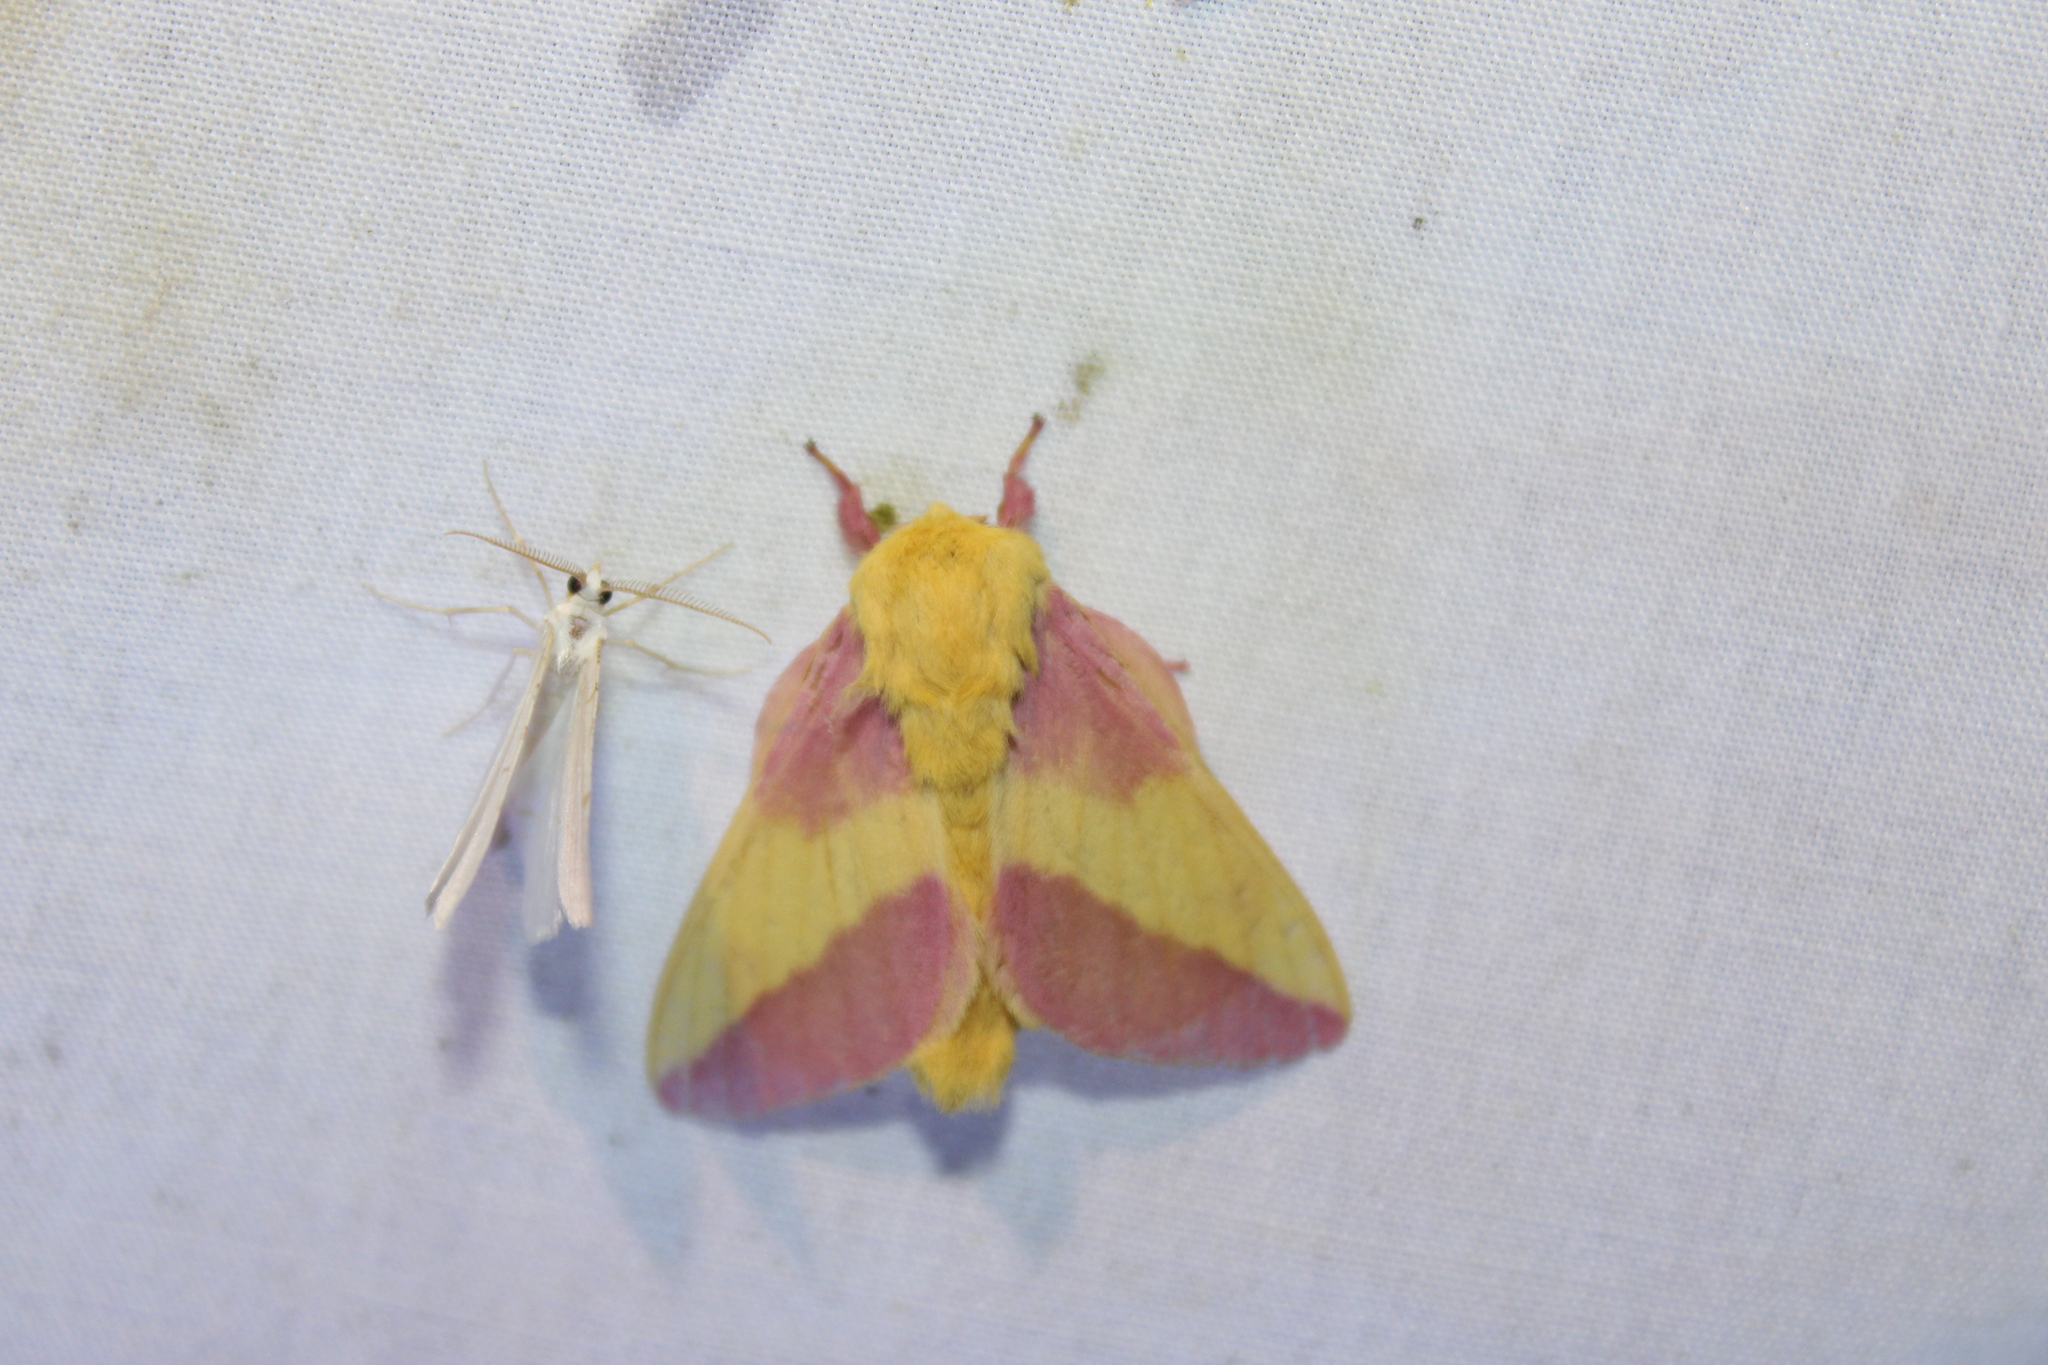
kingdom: Animalia
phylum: Arthropoda
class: Insecta
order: Lepidoptera
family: Saturniidae
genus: Dryocampa
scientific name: Dryocampa rubicunda
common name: Rosy maple moth
